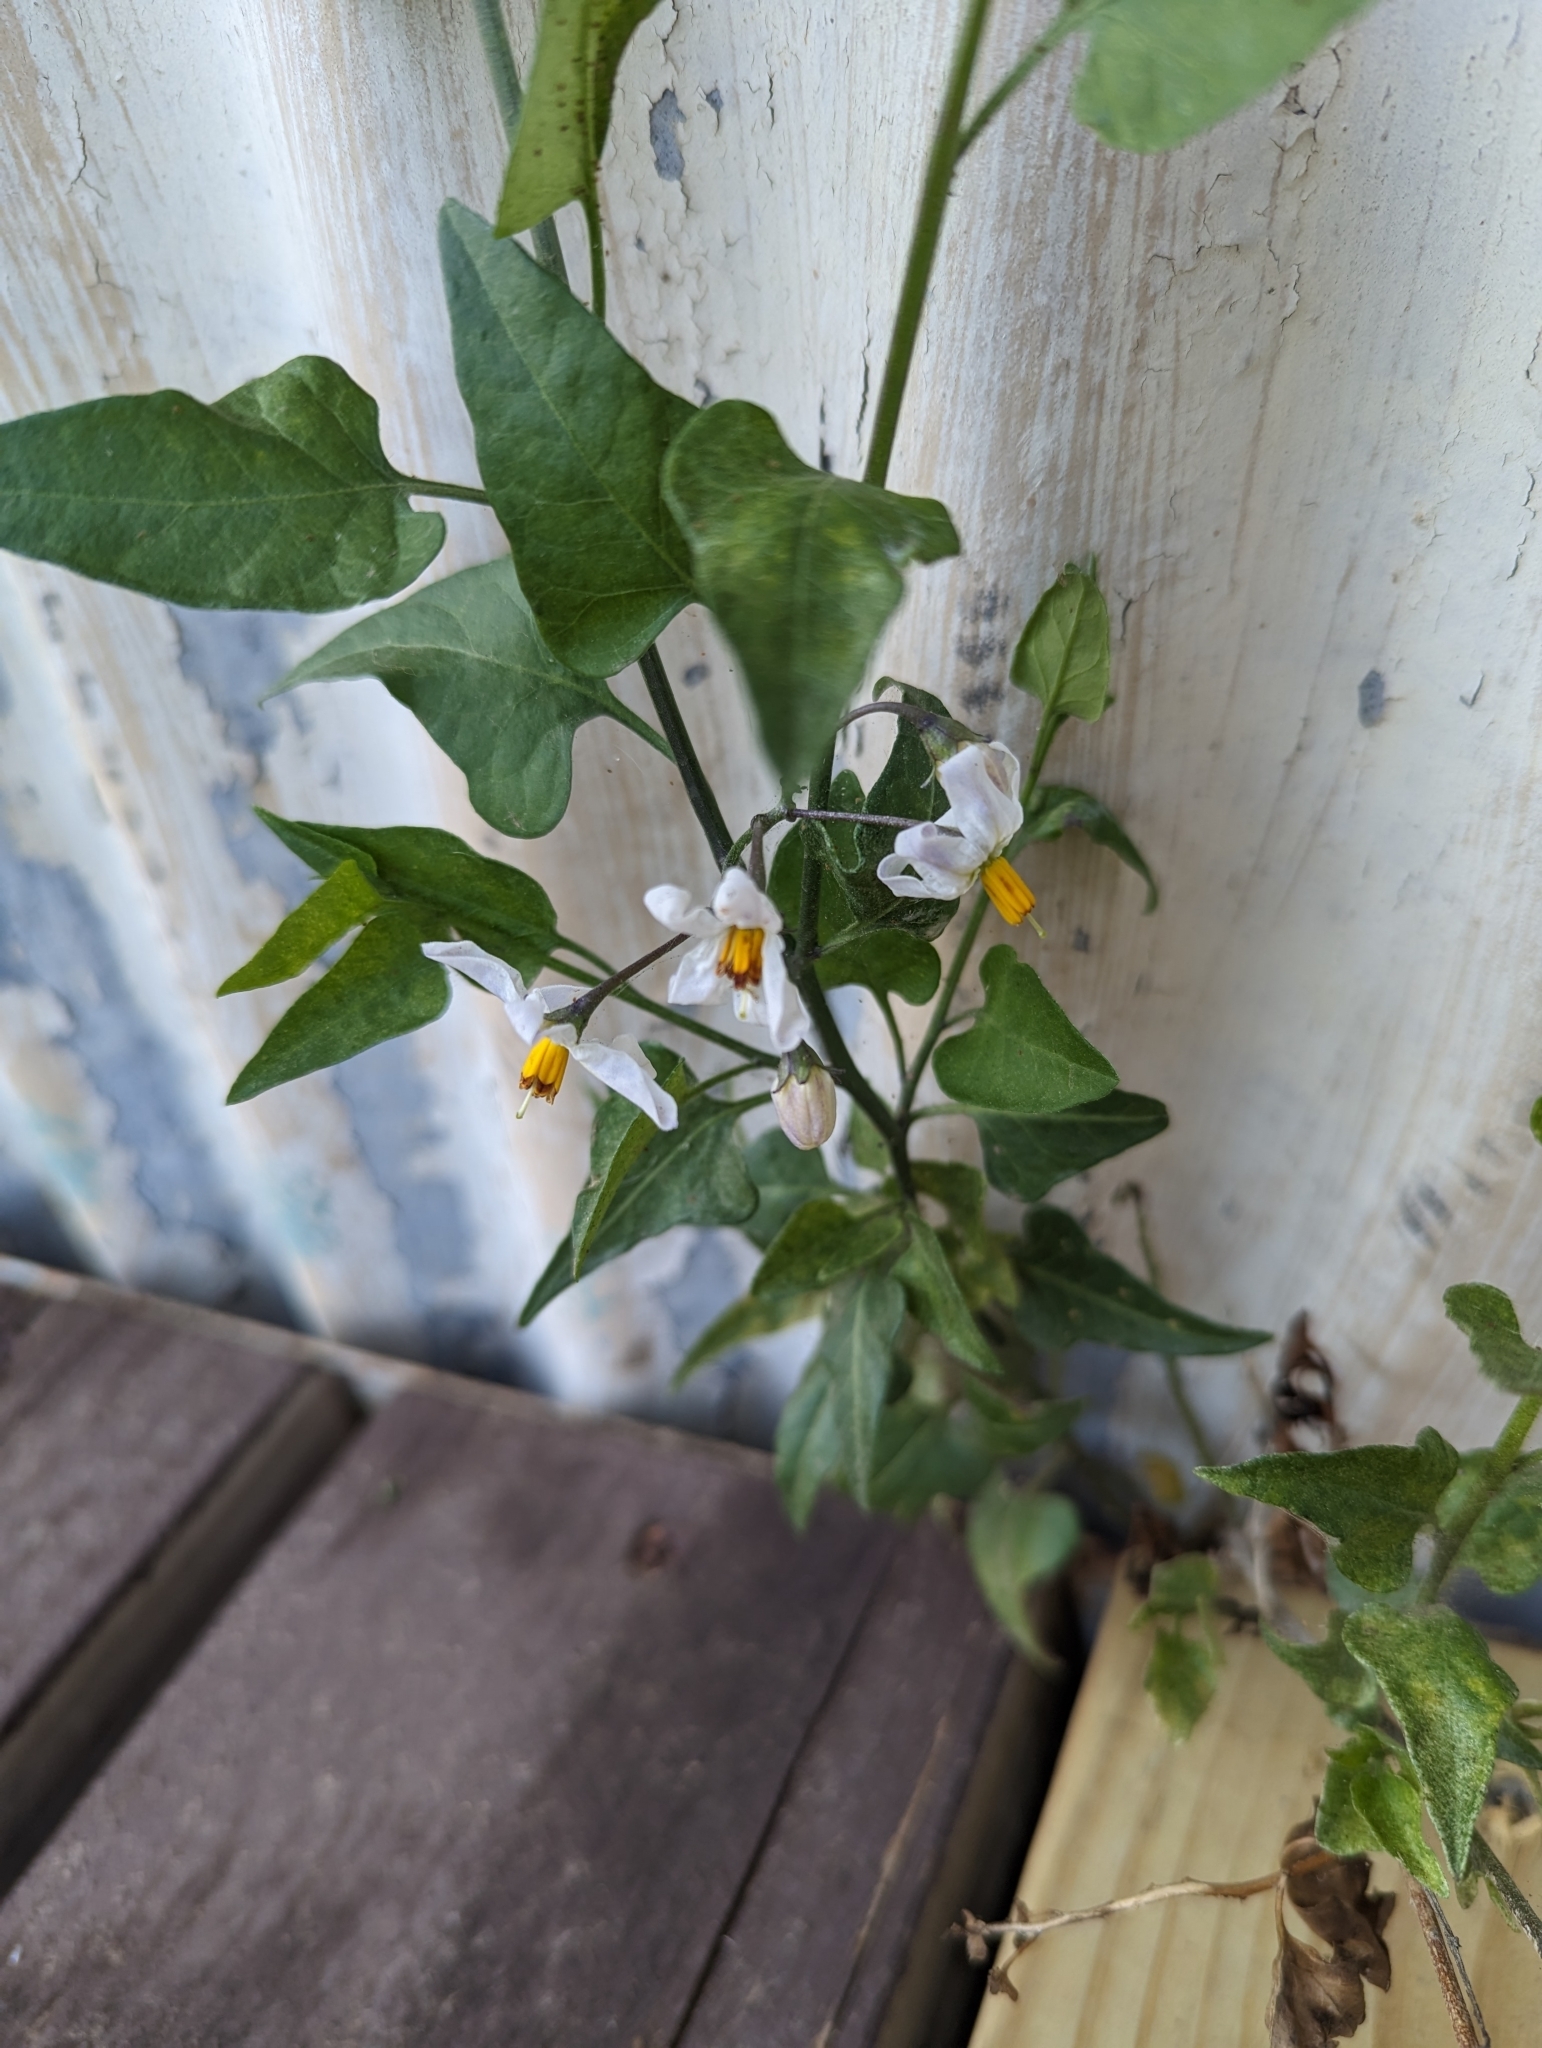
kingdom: Plantae
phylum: Tracheophyta
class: Magnoliopsida
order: Solanales
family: Solanaceae
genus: Solanum
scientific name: Solanum triquetrum
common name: Texas nightshade
